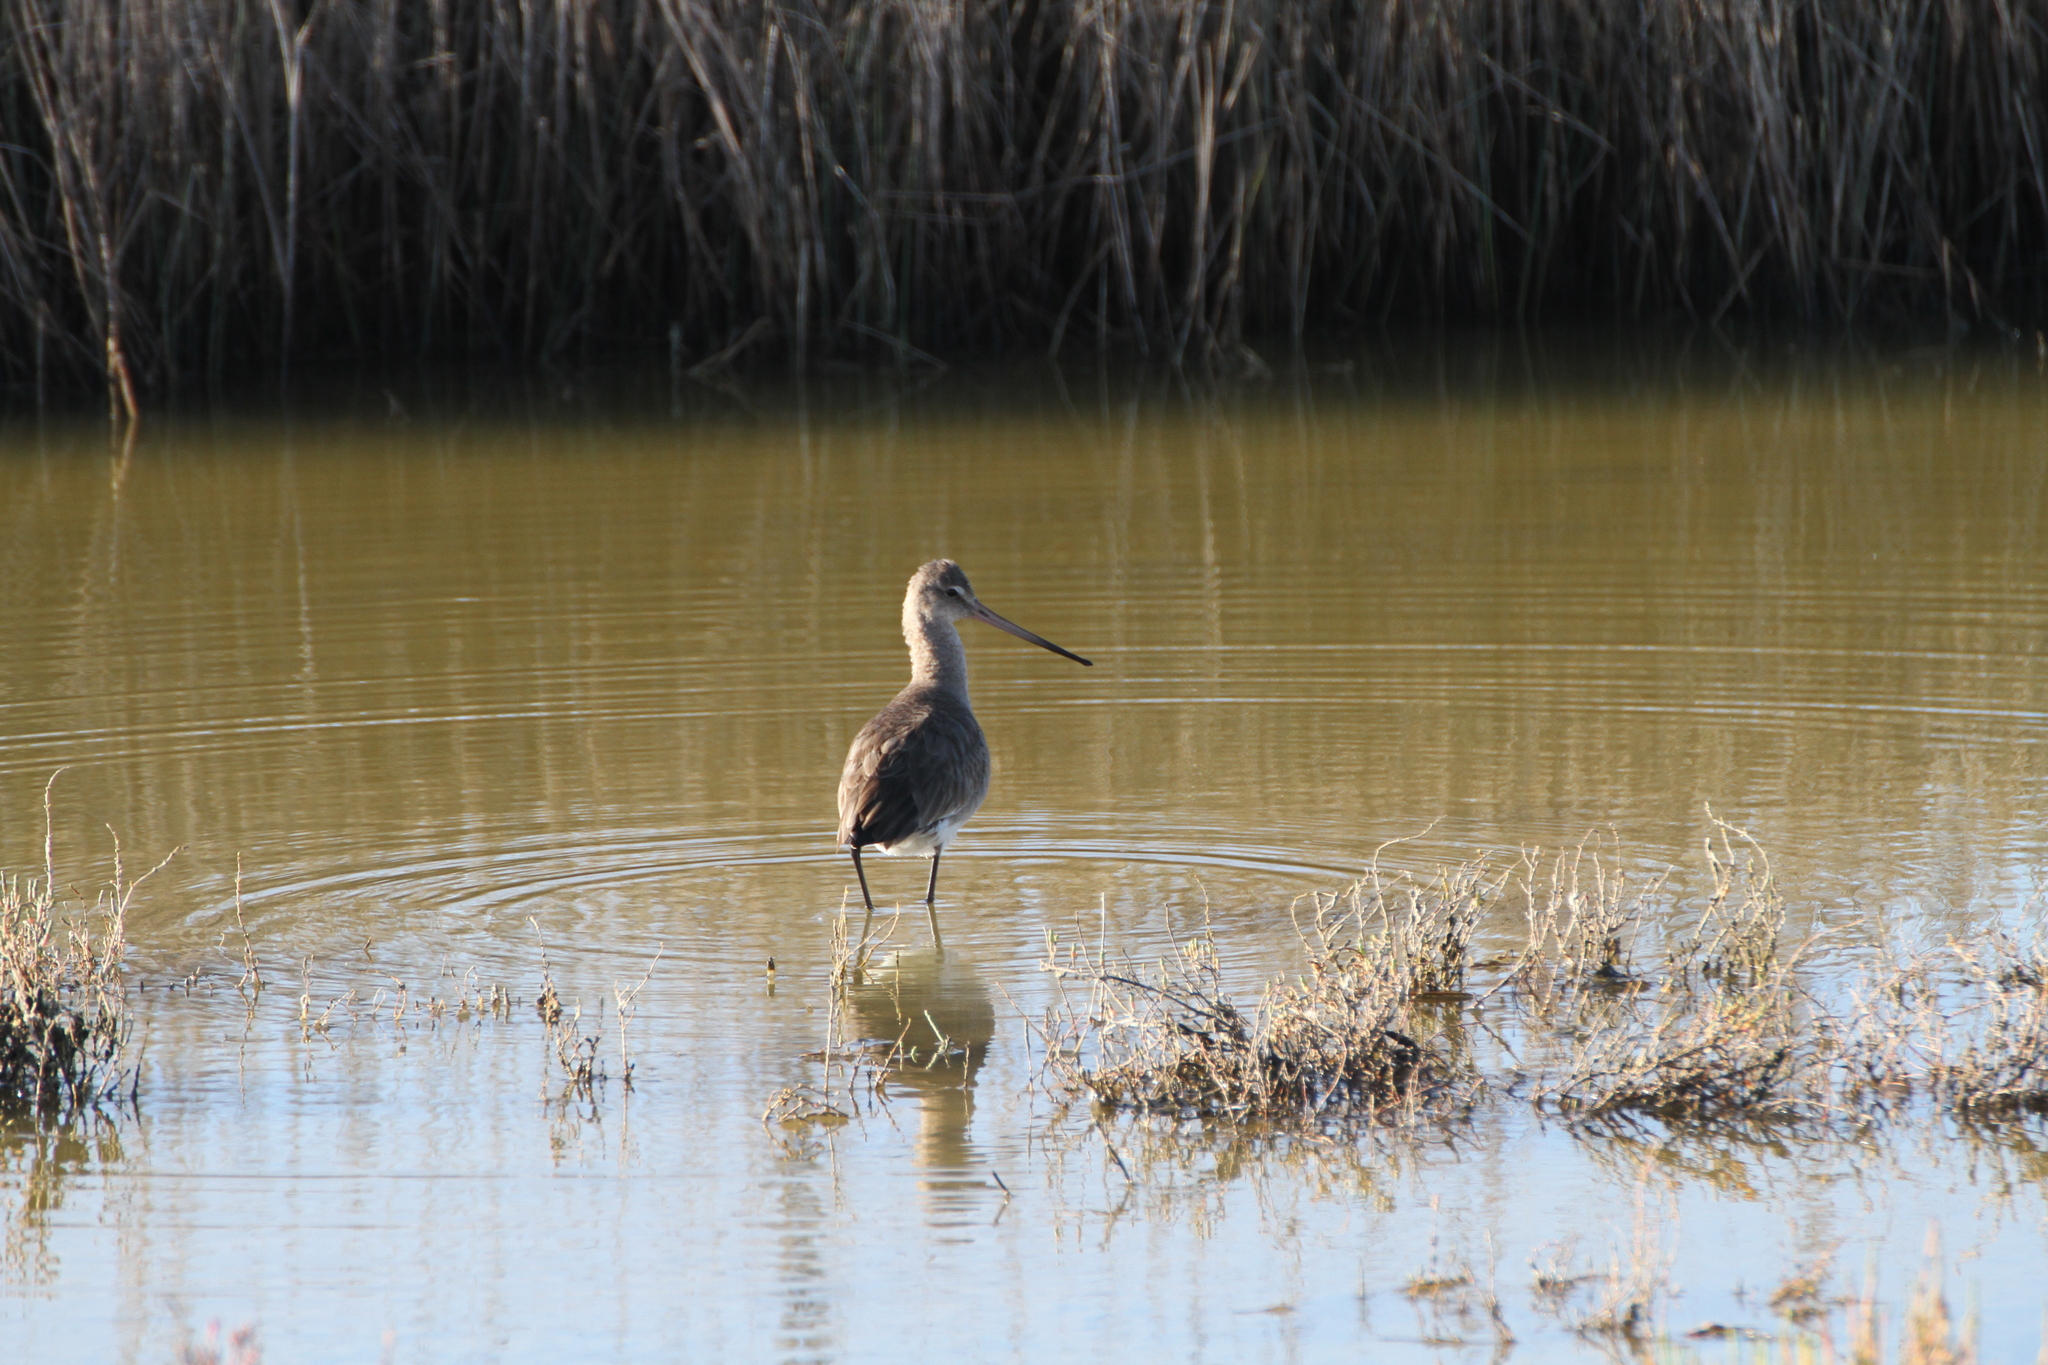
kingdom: Animalia
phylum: Chordata
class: Aves
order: Charadriiformes
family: Scolopacidae
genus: Limosa
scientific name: Limosa limosa
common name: Black-tailed godwit
